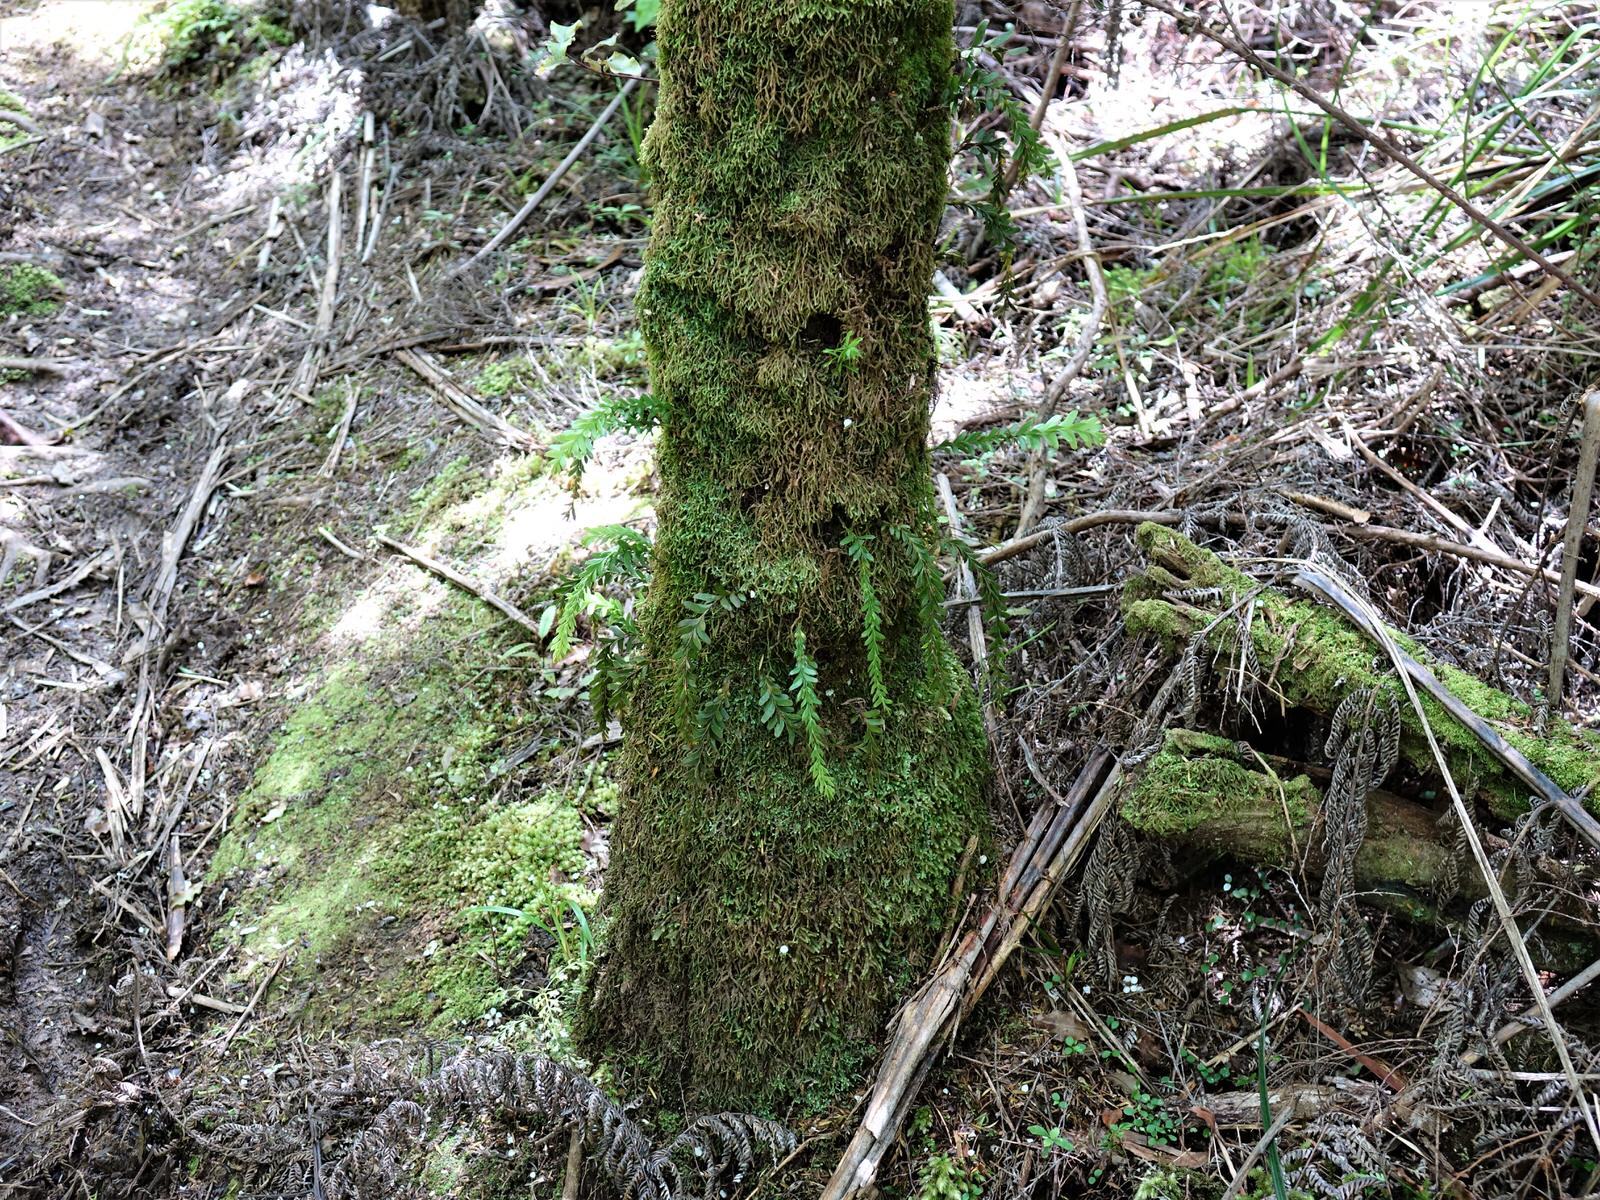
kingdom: Plantae
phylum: Tracheophyta
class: Polypodiopsida
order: Psilotales
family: Psilotaceae
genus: Tmesipteris
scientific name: Tmesipteris tannensis
